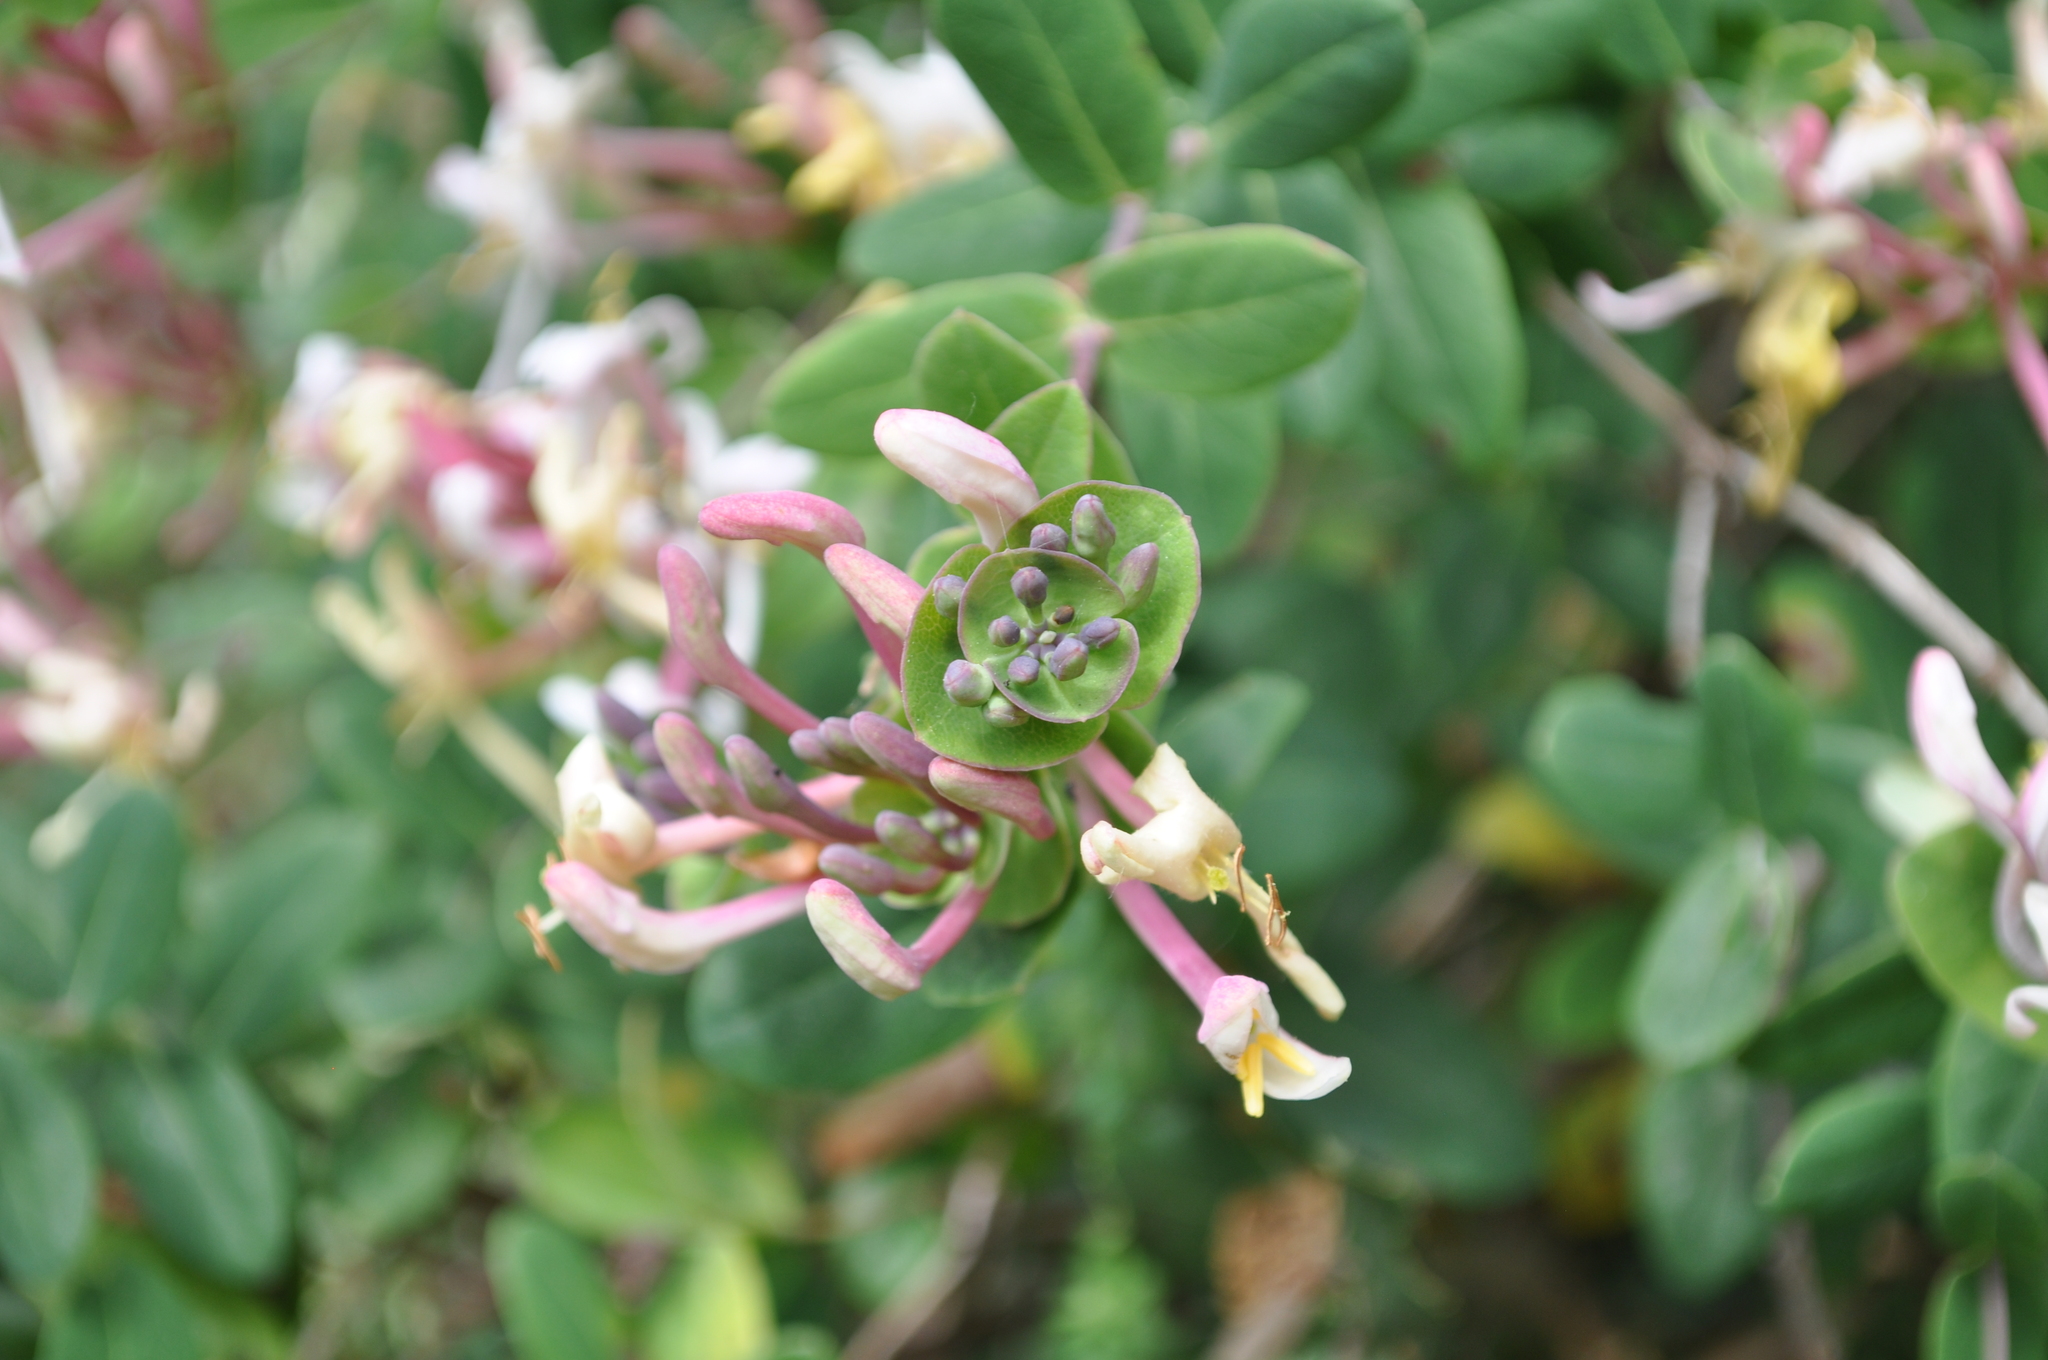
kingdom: Plantae
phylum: Tracheophyta
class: Magnoliopsida
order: Dipsacales
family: Caprifoliaceae
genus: Lonicera
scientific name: Lonicera implexa
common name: Minorca honeysuckle
